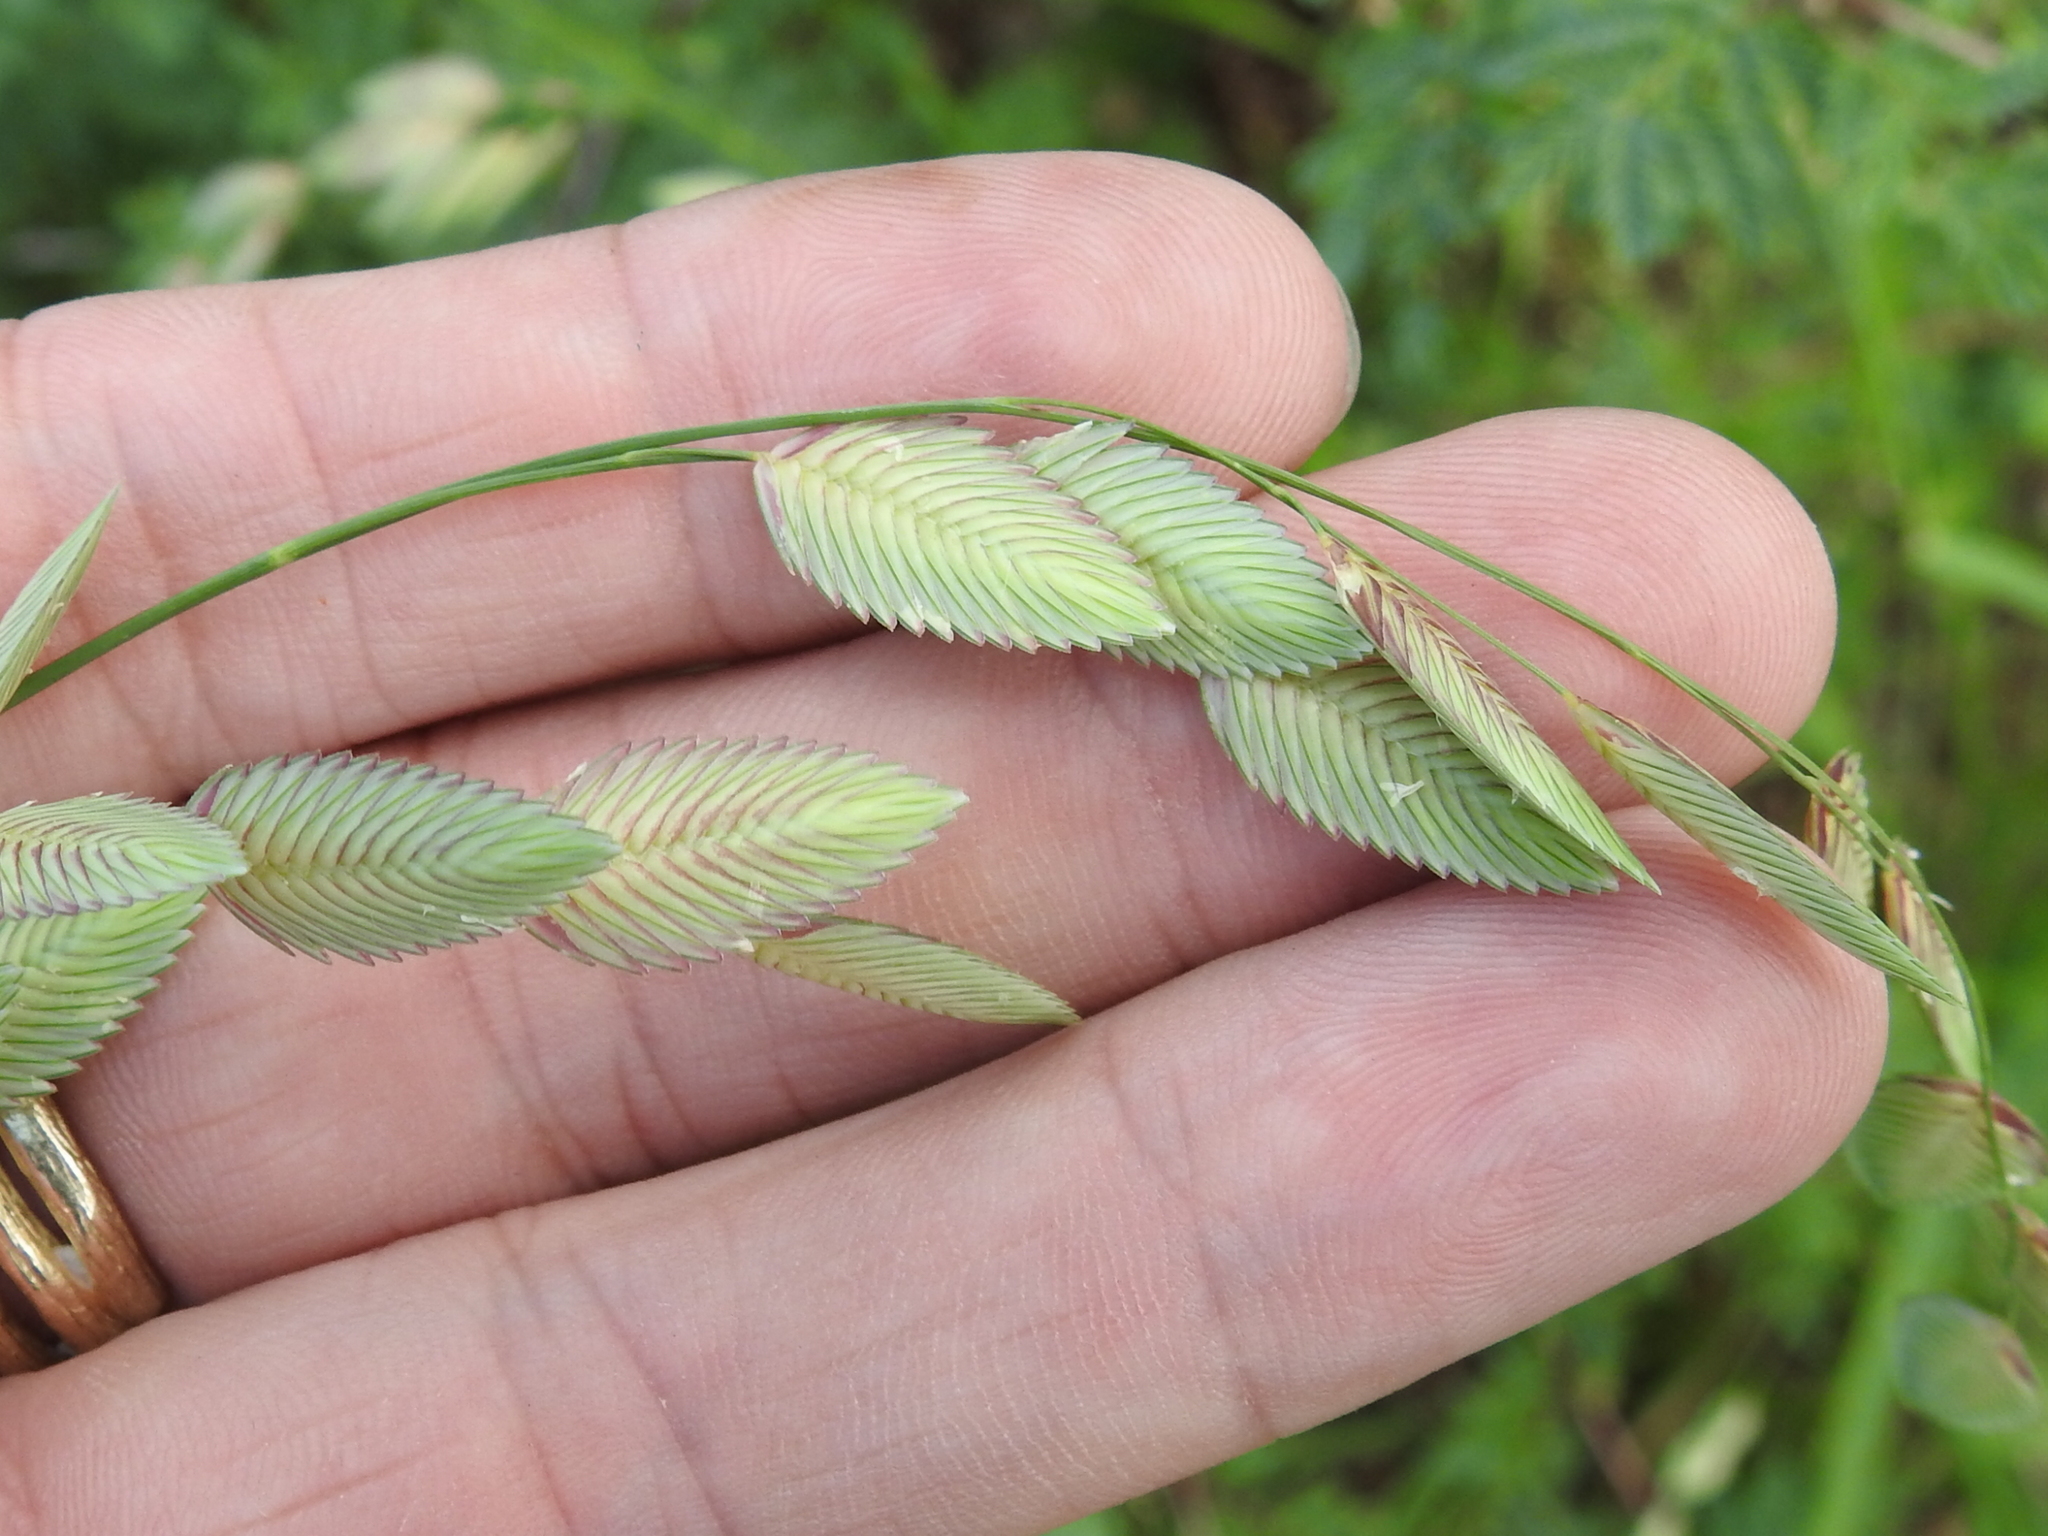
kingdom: Plantae
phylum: Tracheophyta
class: Liliopsida
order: Poales
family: Poaceae
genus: Eragrostis
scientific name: Eragrostis superba
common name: Wilman lovegrass
